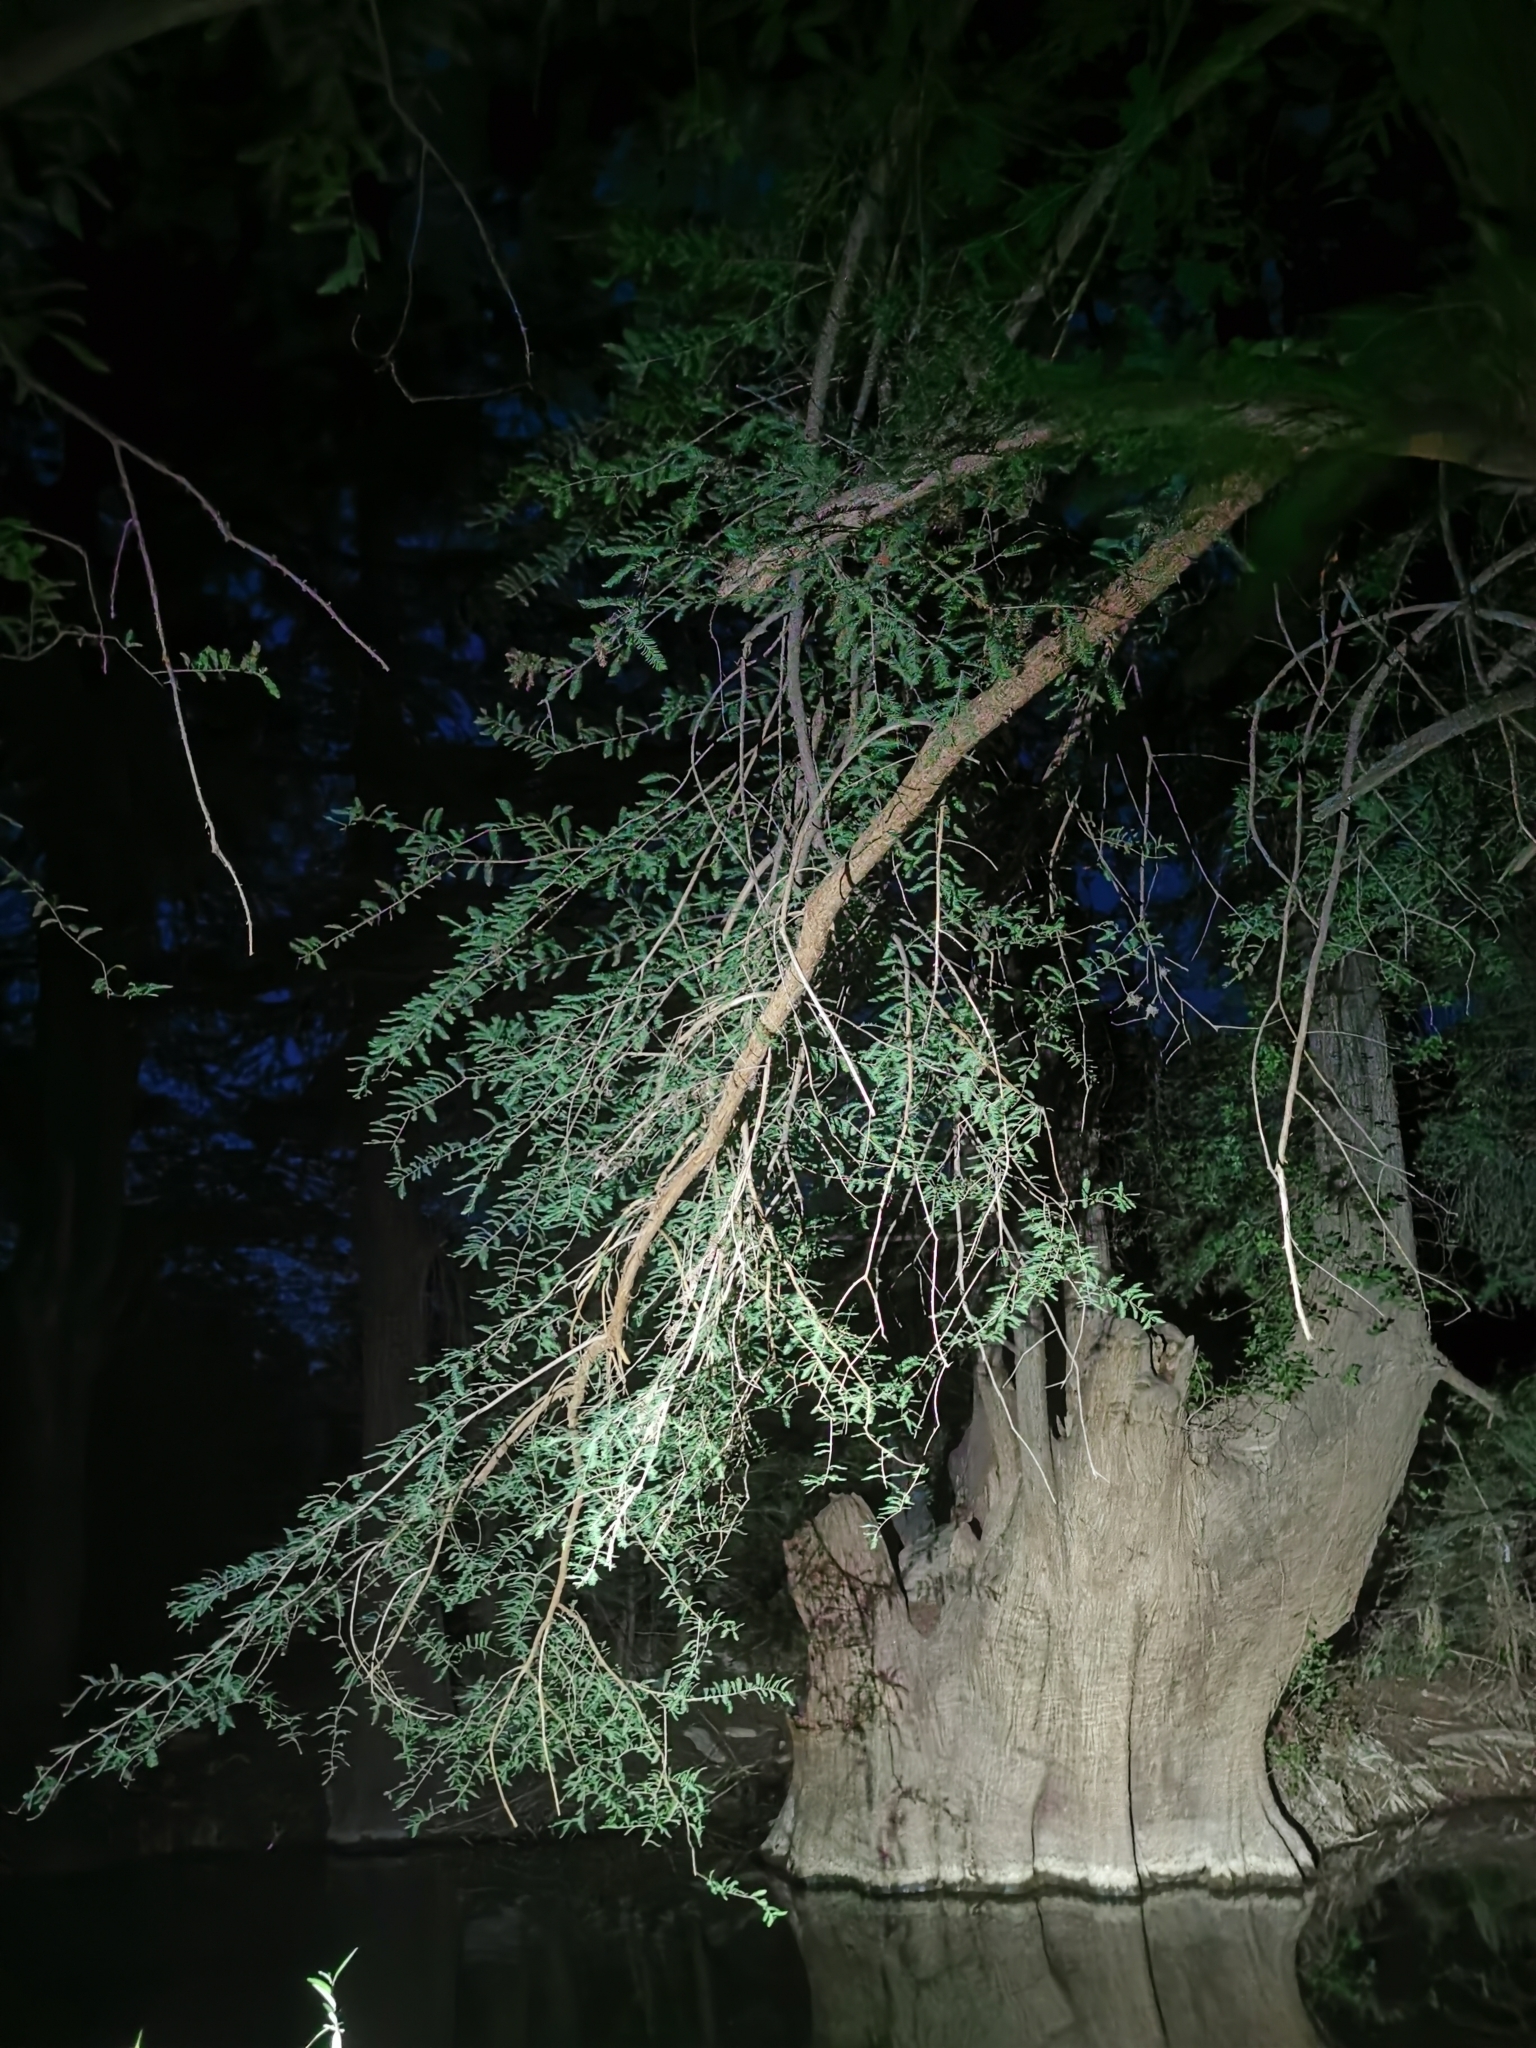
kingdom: Plantae
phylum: Tracheophyta
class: Pinopsida
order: Pinales
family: Cupressaceae
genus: Taxodium
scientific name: Taxodium mucronatum
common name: Montezume bald cypress
